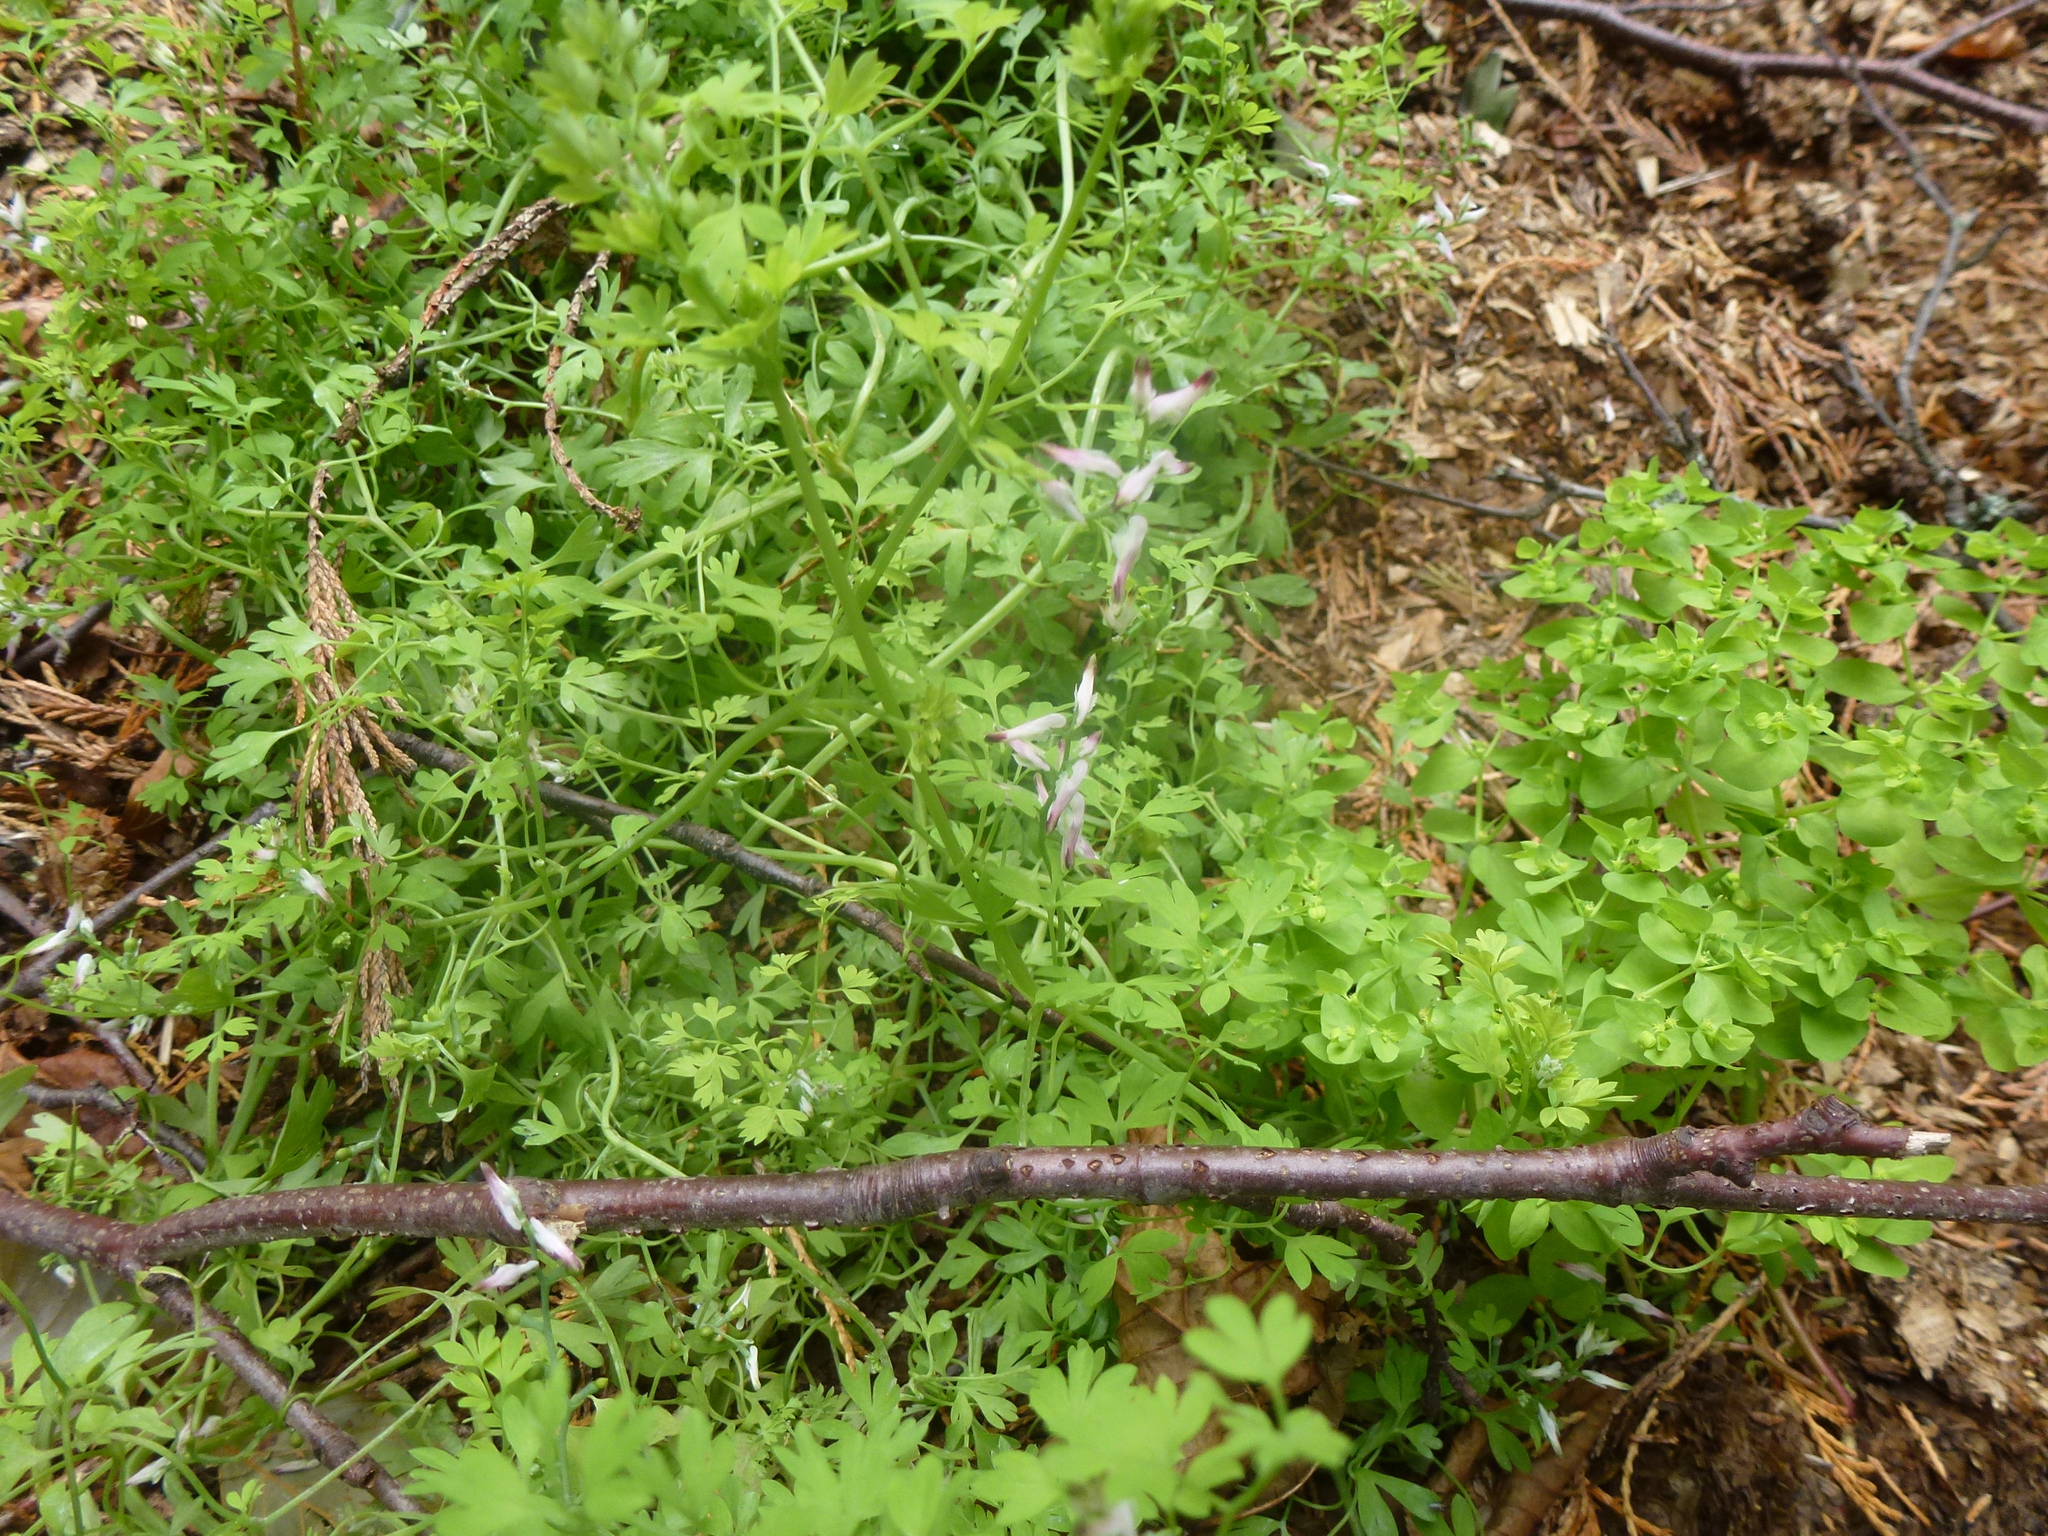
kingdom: Plantae
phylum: Tracheophyta
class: Magnoliopsida
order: Ranunculales
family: Papaveraceae
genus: Fumaria
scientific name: Fumaria muralis
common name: Common ramping-fumitory
